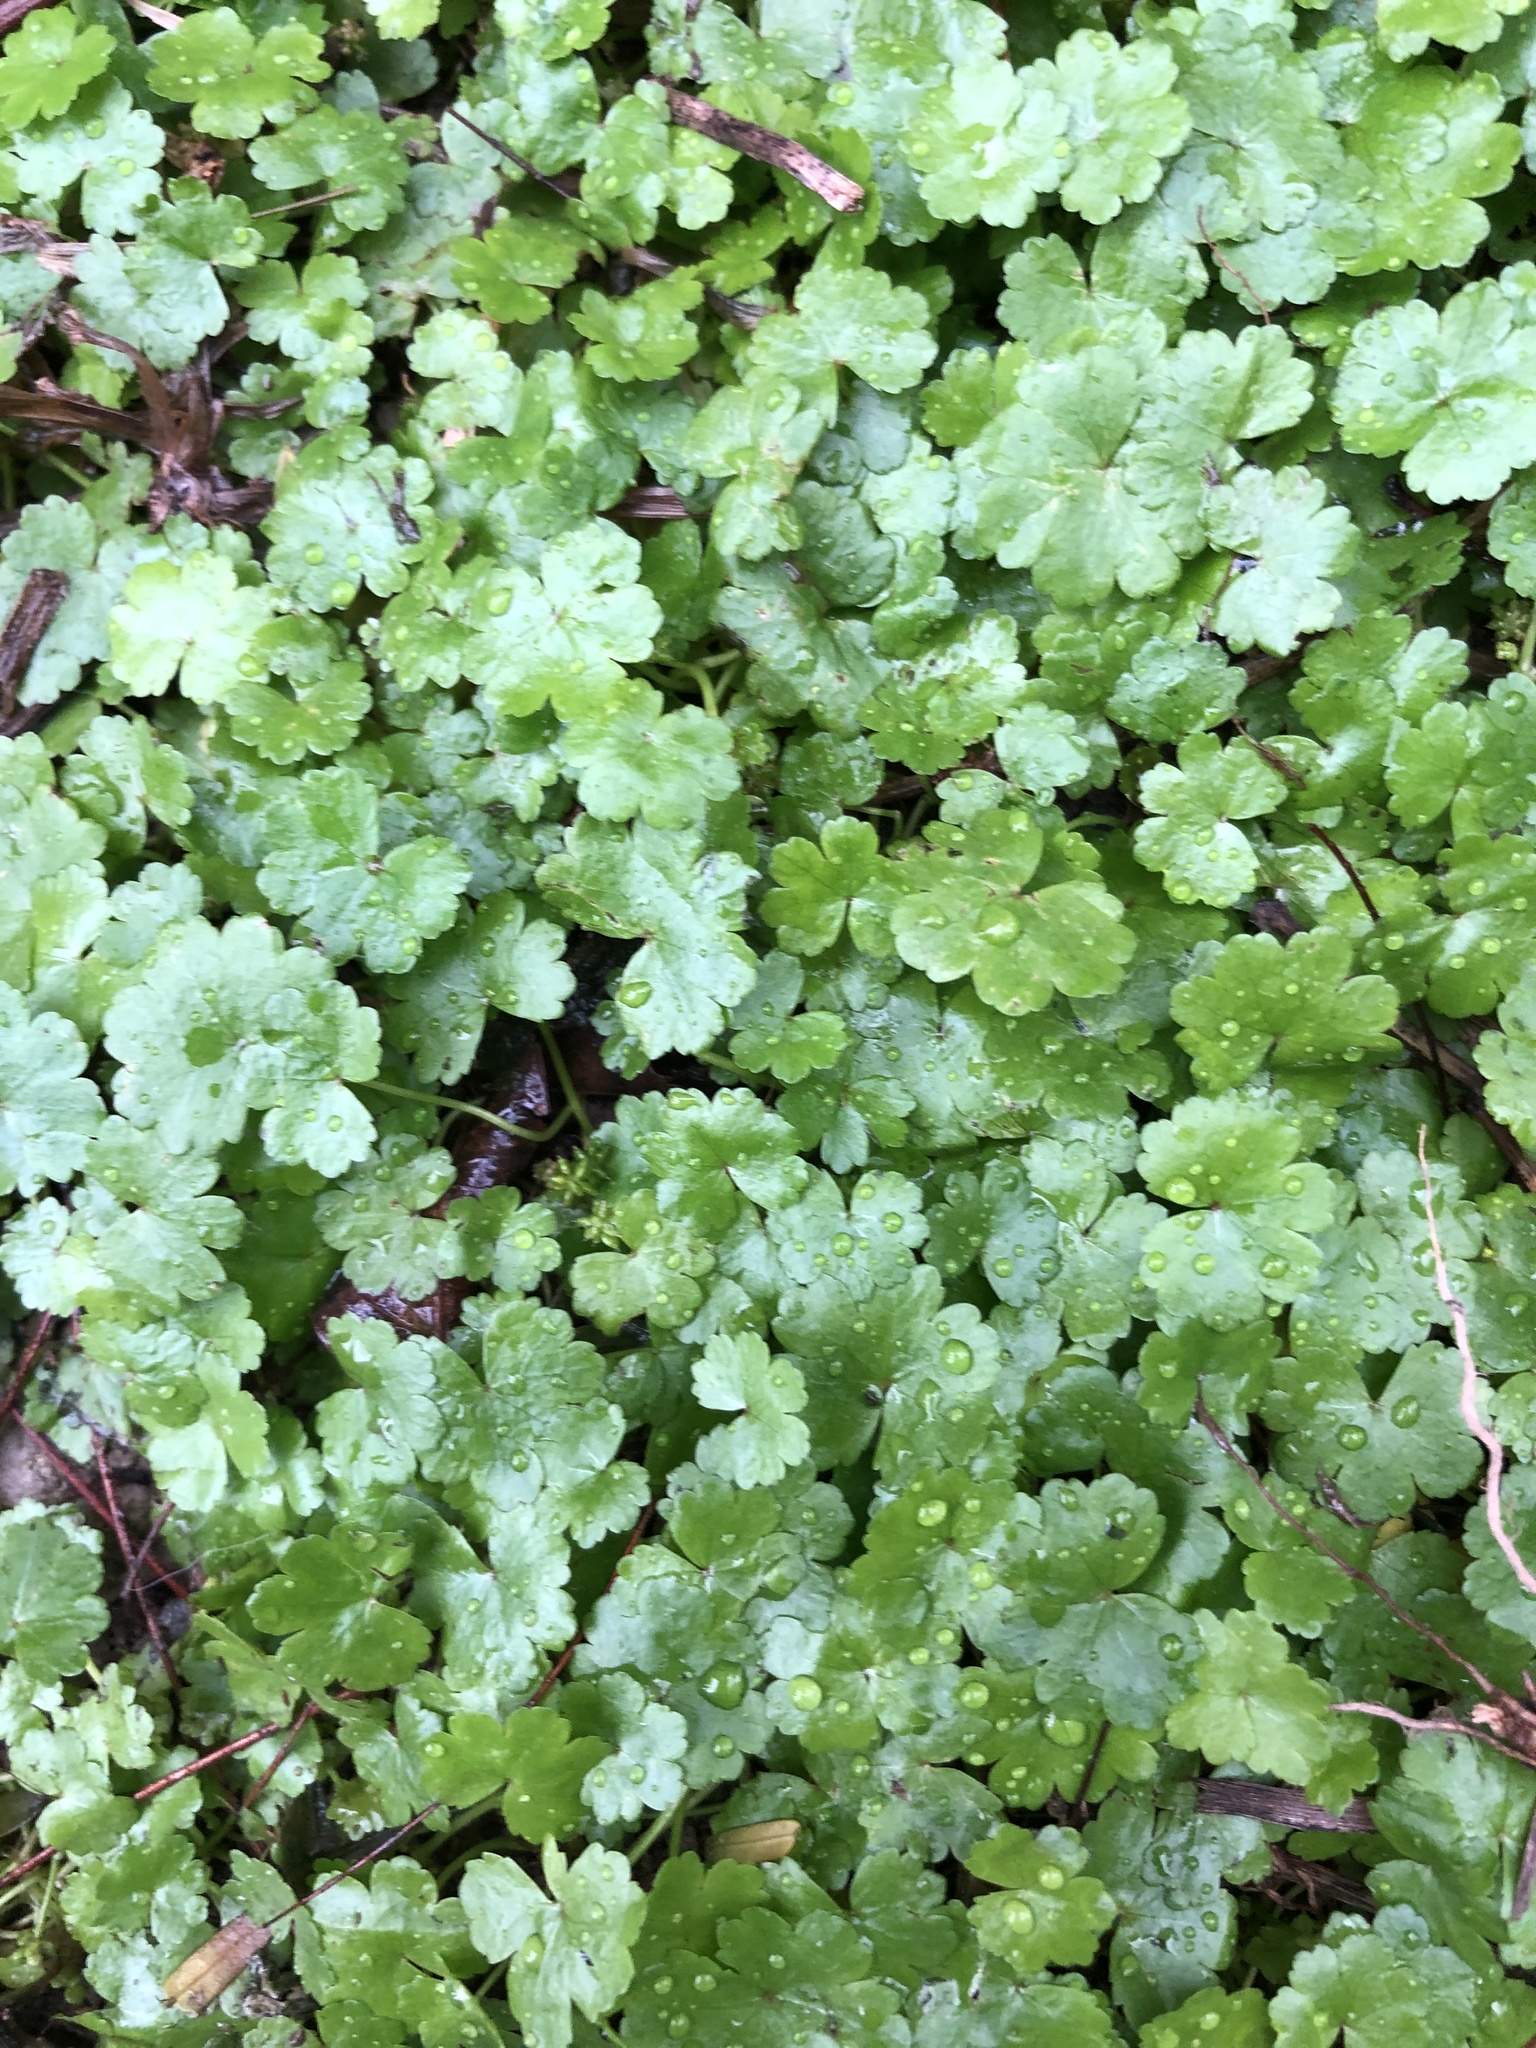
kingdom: Plantae
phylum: Tracheophyta
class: Magnoliopsida
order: Apiales
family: Araliaceae
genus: Hydrocotyle
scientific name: Hydrocotyle sibthorpioides
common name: Lawn marshpennywort
